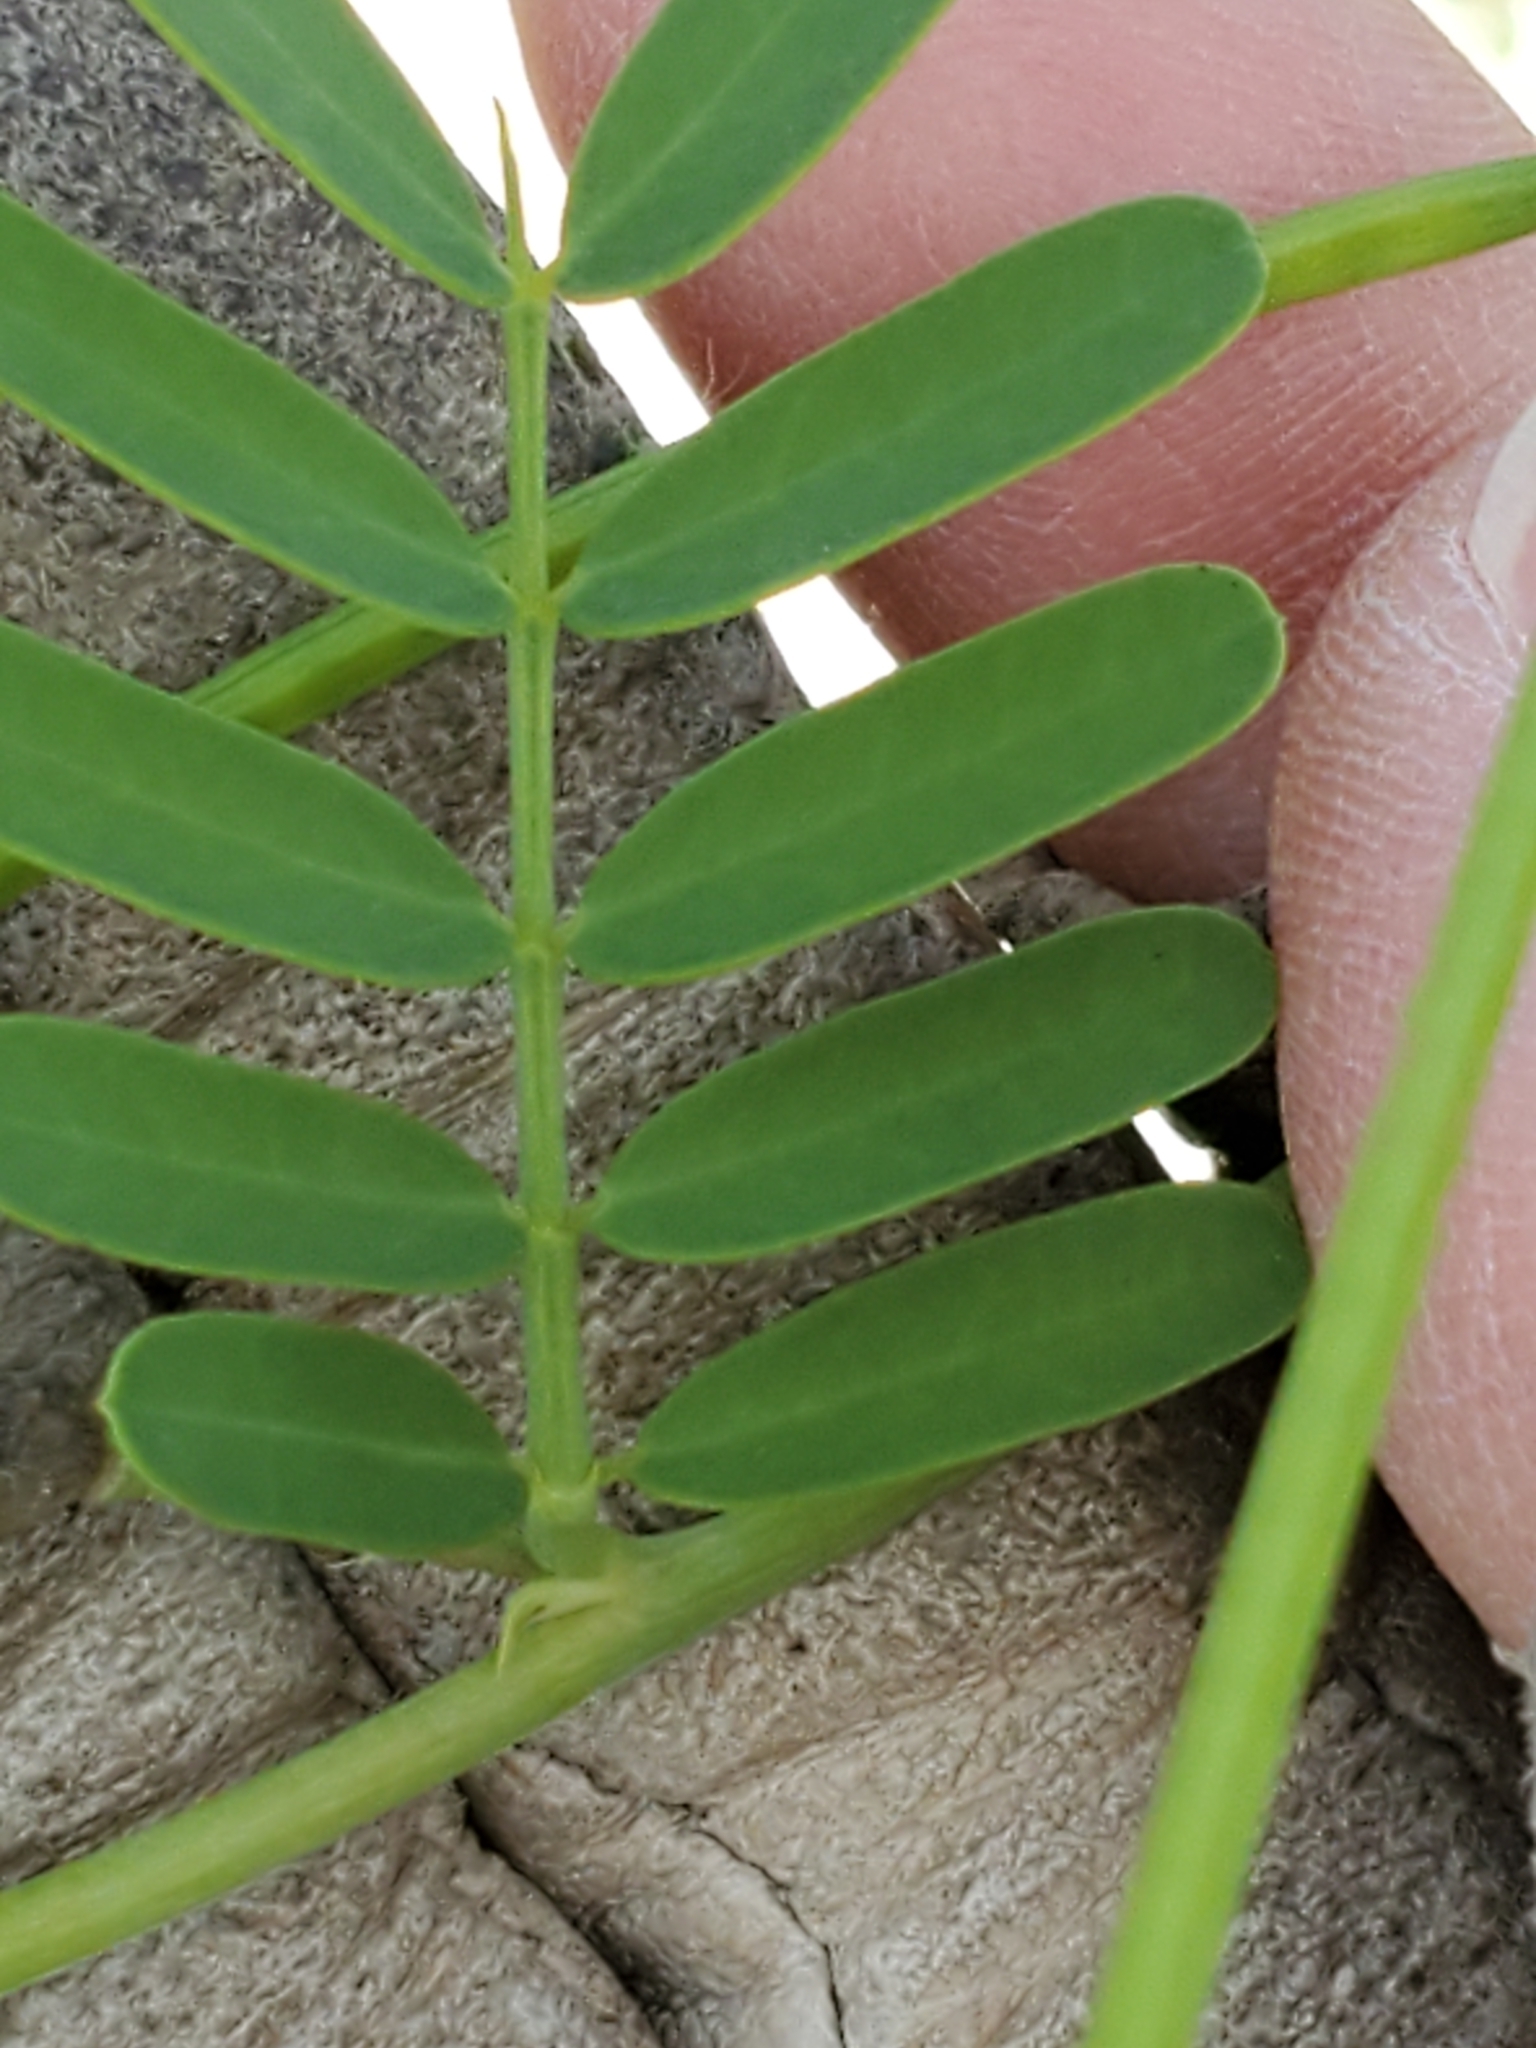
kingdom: Plantae
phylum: Tracheophyta
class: Magnoliopsida
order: Fabales
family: Fabaceae
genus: Sesbania
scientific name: Sesbania vesicaria
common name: Bagpod
